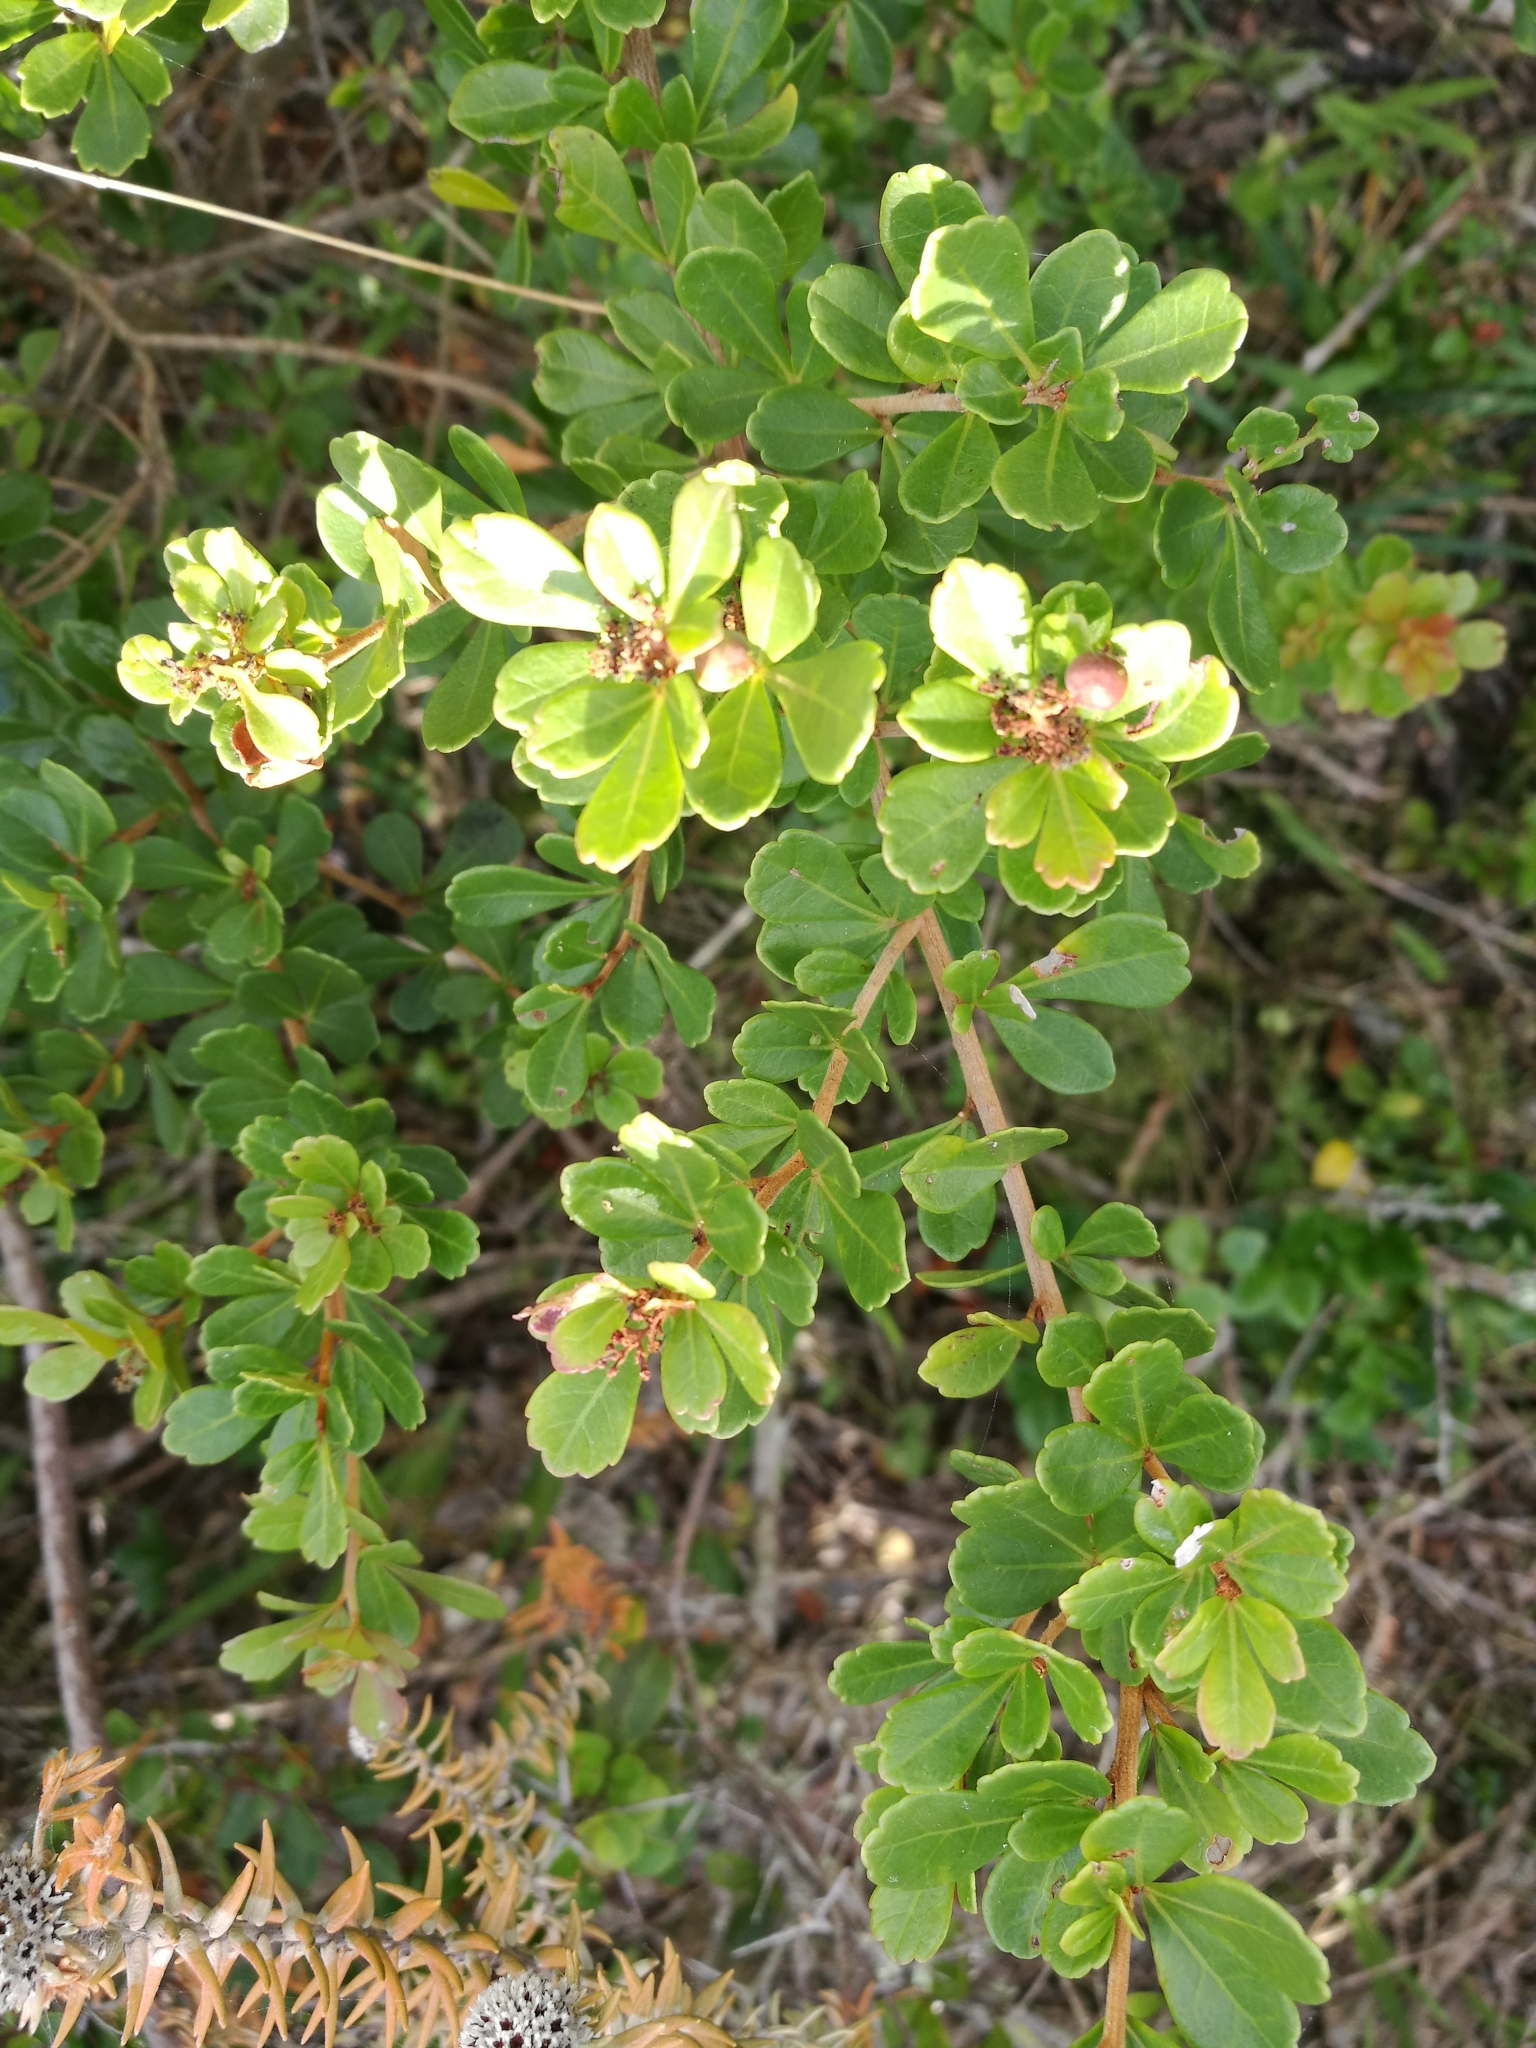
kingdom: Plantae
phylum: Tracheophyta
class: Magnoliopsida
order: Sapindales
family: Anacardiaceae
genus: Searsia
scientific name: Searsia crenata
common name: Crowberry
